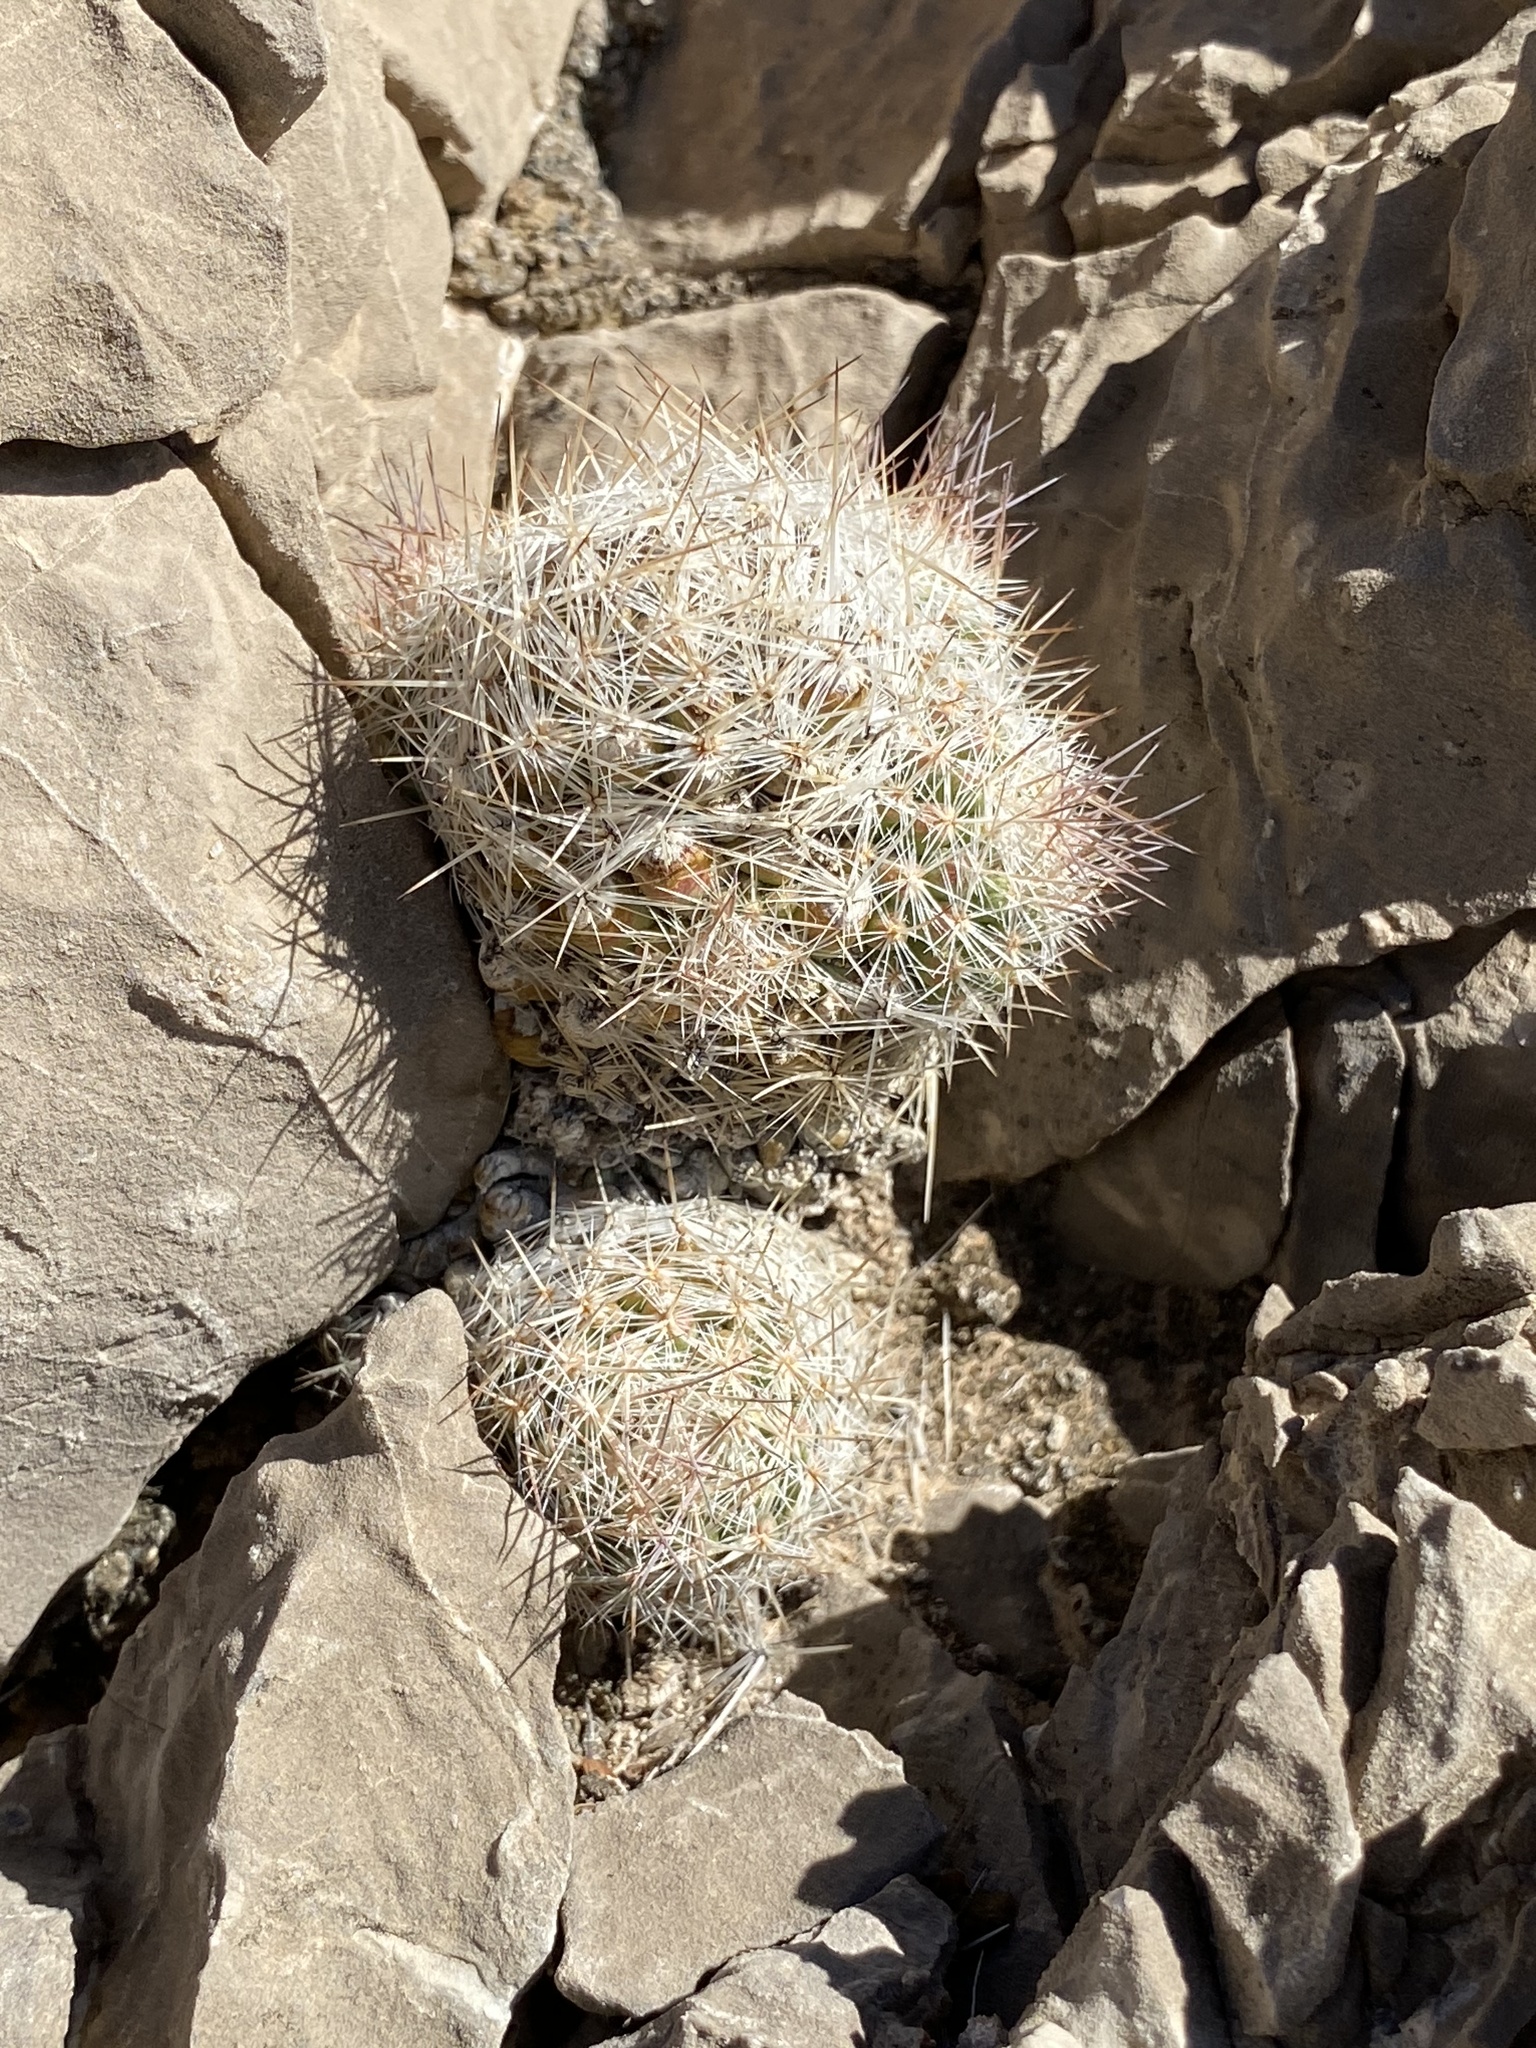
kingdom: Plantae
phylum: Tracheophyta
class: Magnoliopsida
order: Caryophyllales
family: Cactaceae
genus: Pelecyphora
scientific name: Pelecyphora tuberculosa
